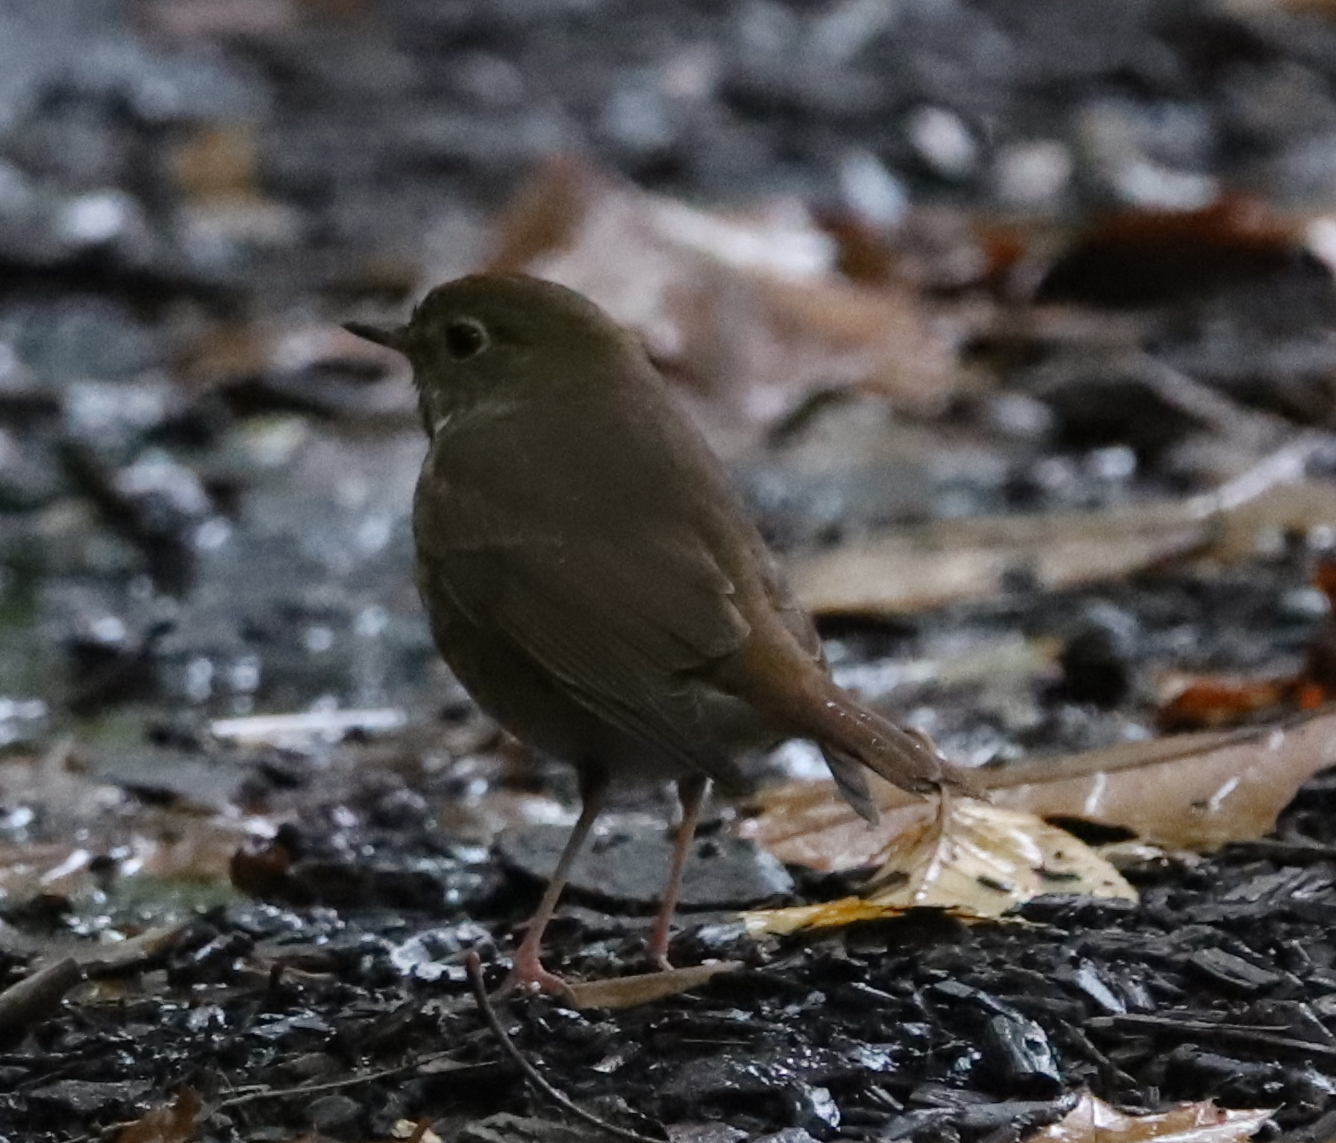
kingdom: Animalia
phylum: Chordata
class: Aves
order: Passeriformes
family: Turdidae
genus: Catharus
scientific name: Catharus guttatus
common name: Hermit thrush
